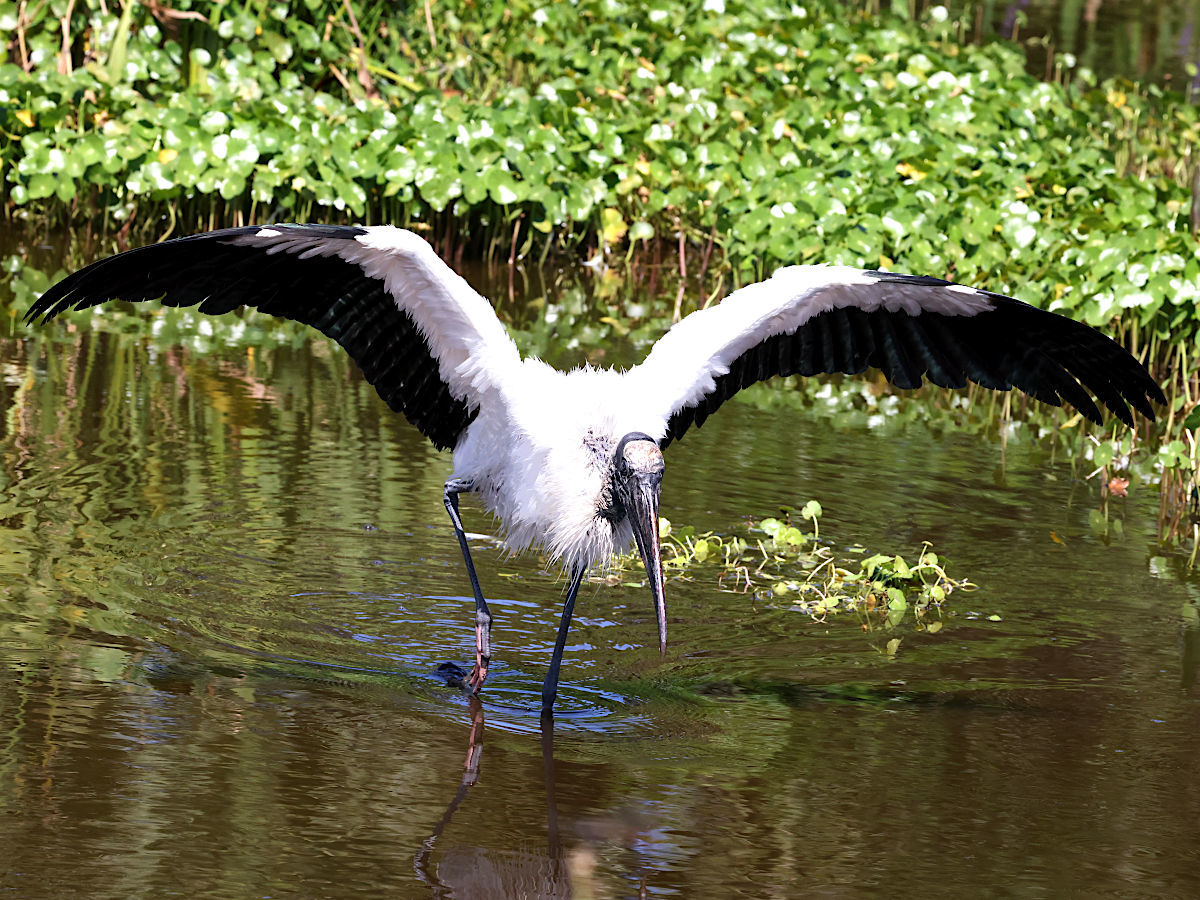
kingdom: Animalia
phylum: Chordata
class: Aves
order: Ciconiiformes
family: Ciconiidae
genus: Mycteria
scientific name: Mycteria americana
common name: Wood stork
